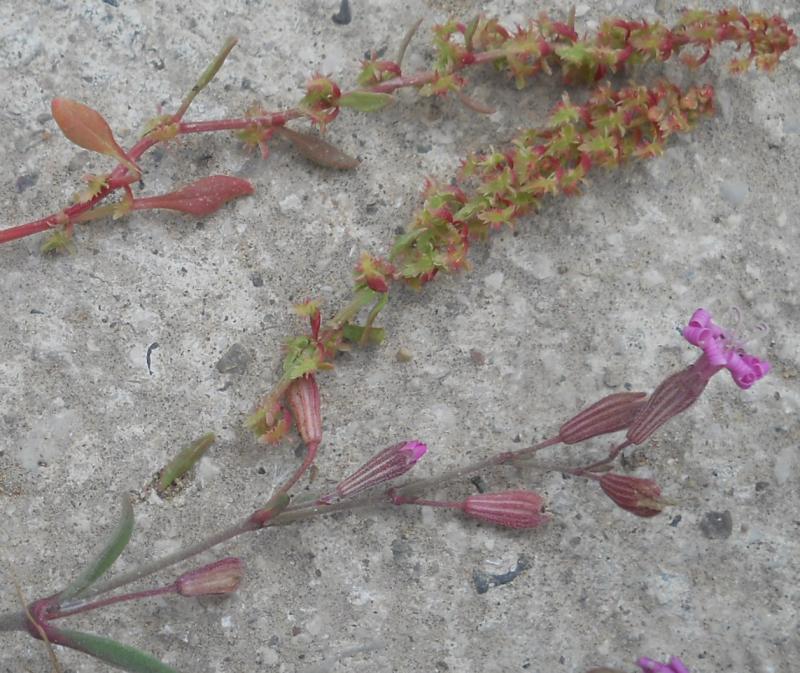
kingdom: Plantae
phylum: Tracheophyta
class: Magnoliopsida
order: Caryophyllales
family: Polygonaceae
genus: Rumex
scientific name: Rumex bucephalophorus
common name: Red dock
